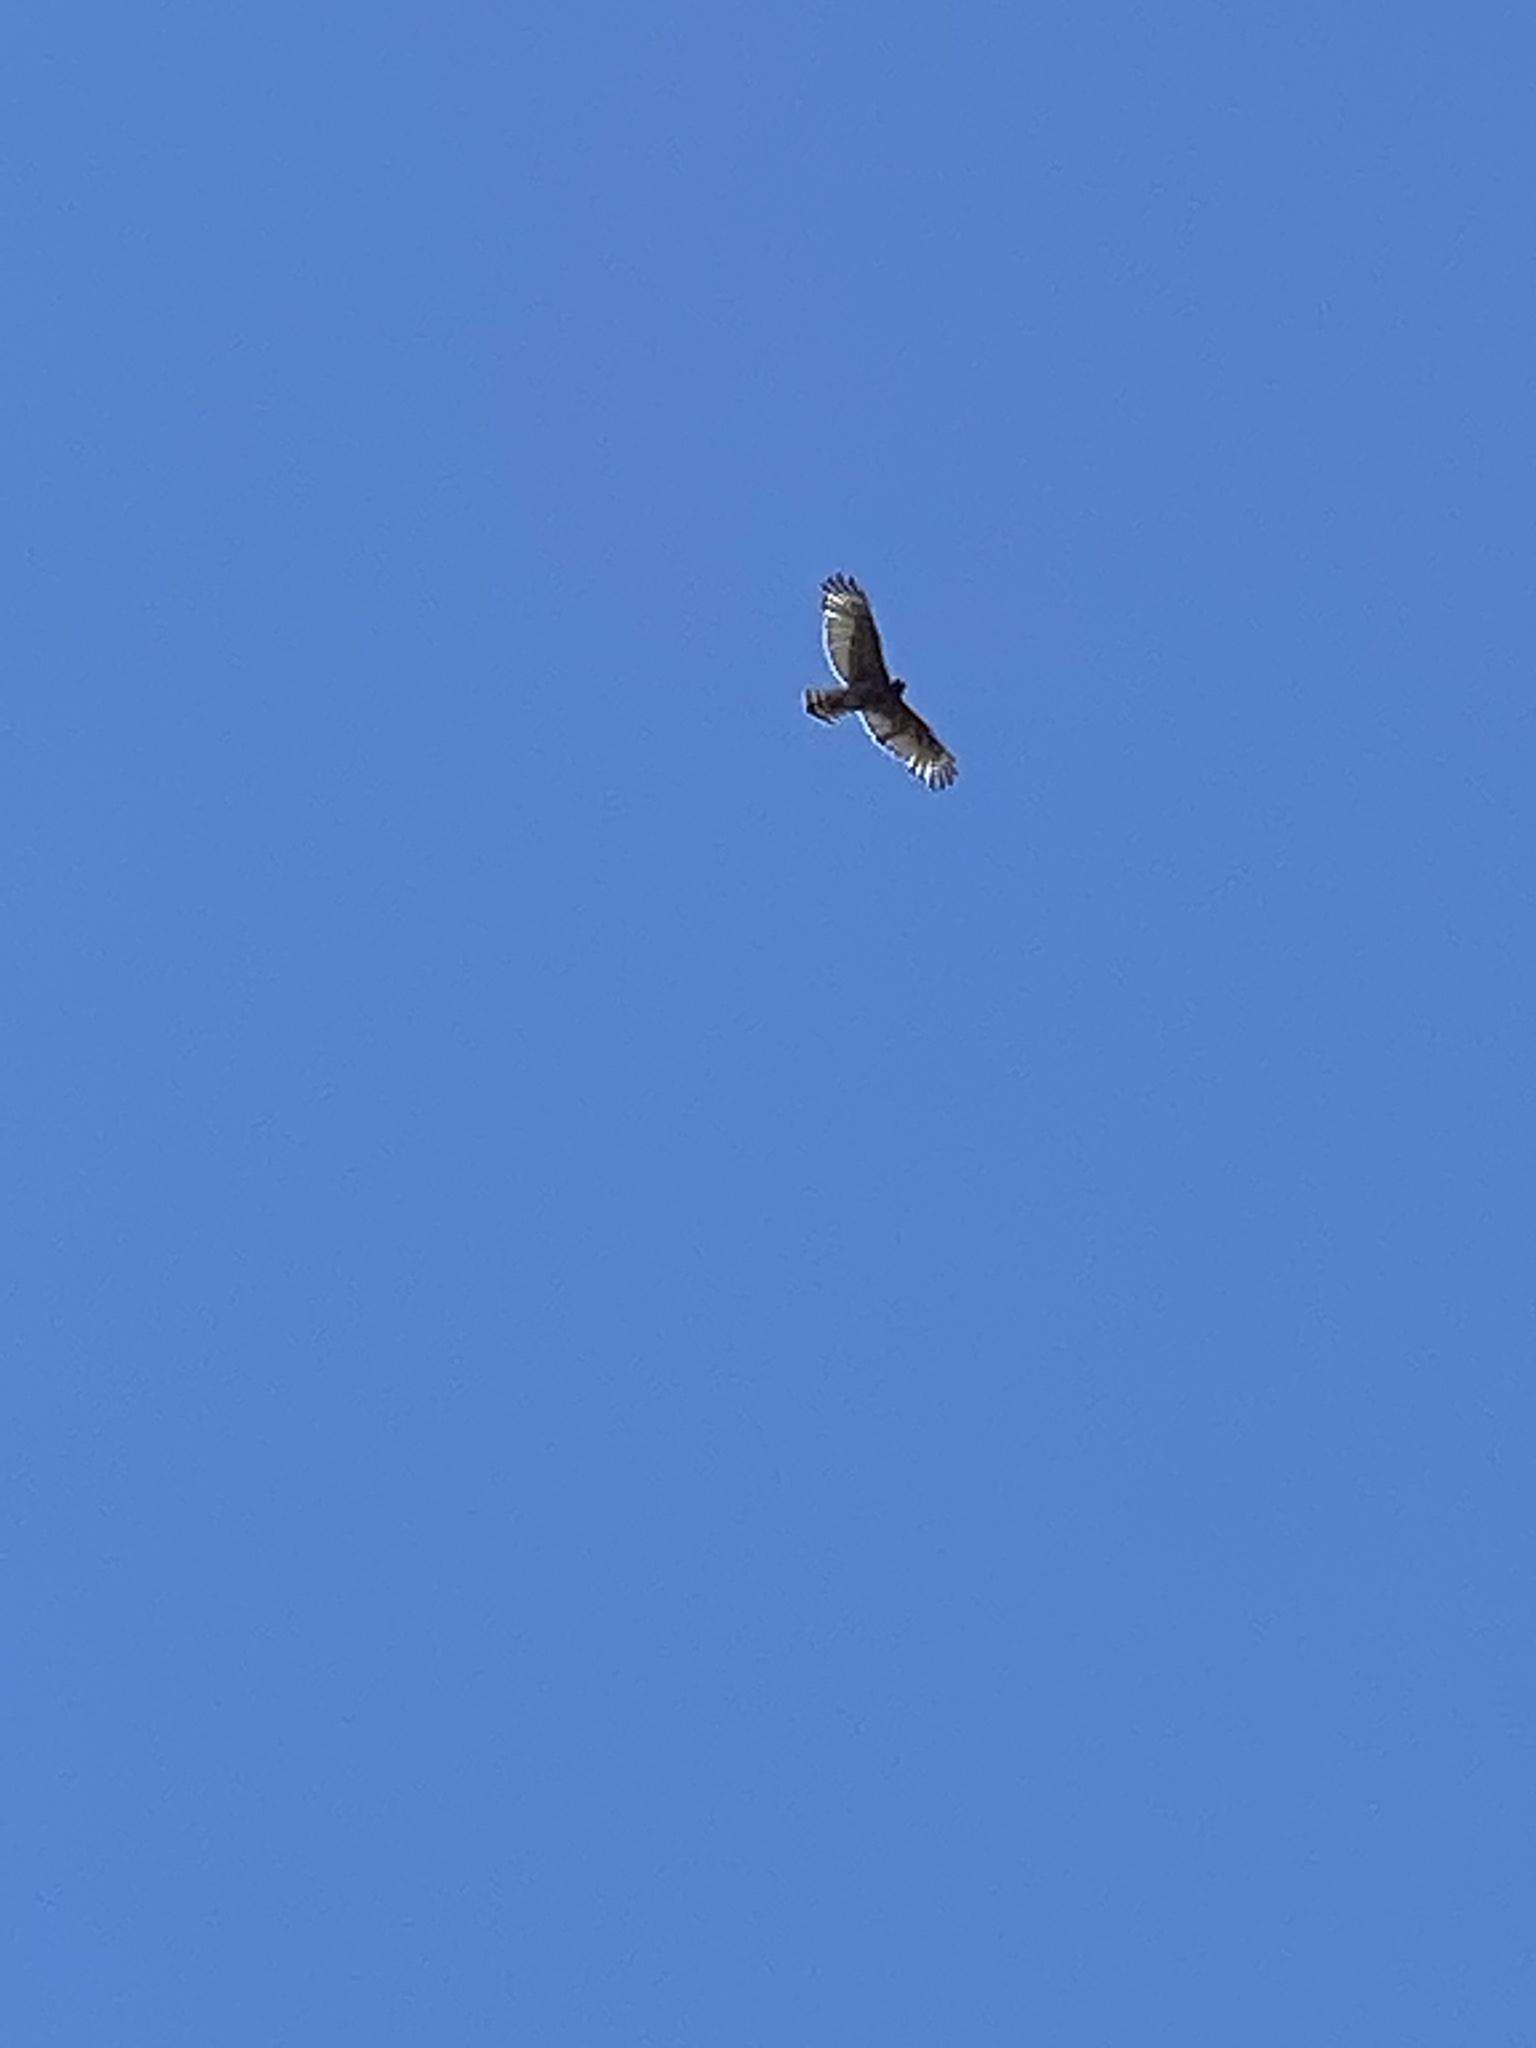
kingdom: Animalia
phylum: Chordata
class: Aves
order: Accipitriformes
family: Accipitridae
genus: Buteo
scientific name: Buteo lineatus
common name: Red-shouldered hawk
